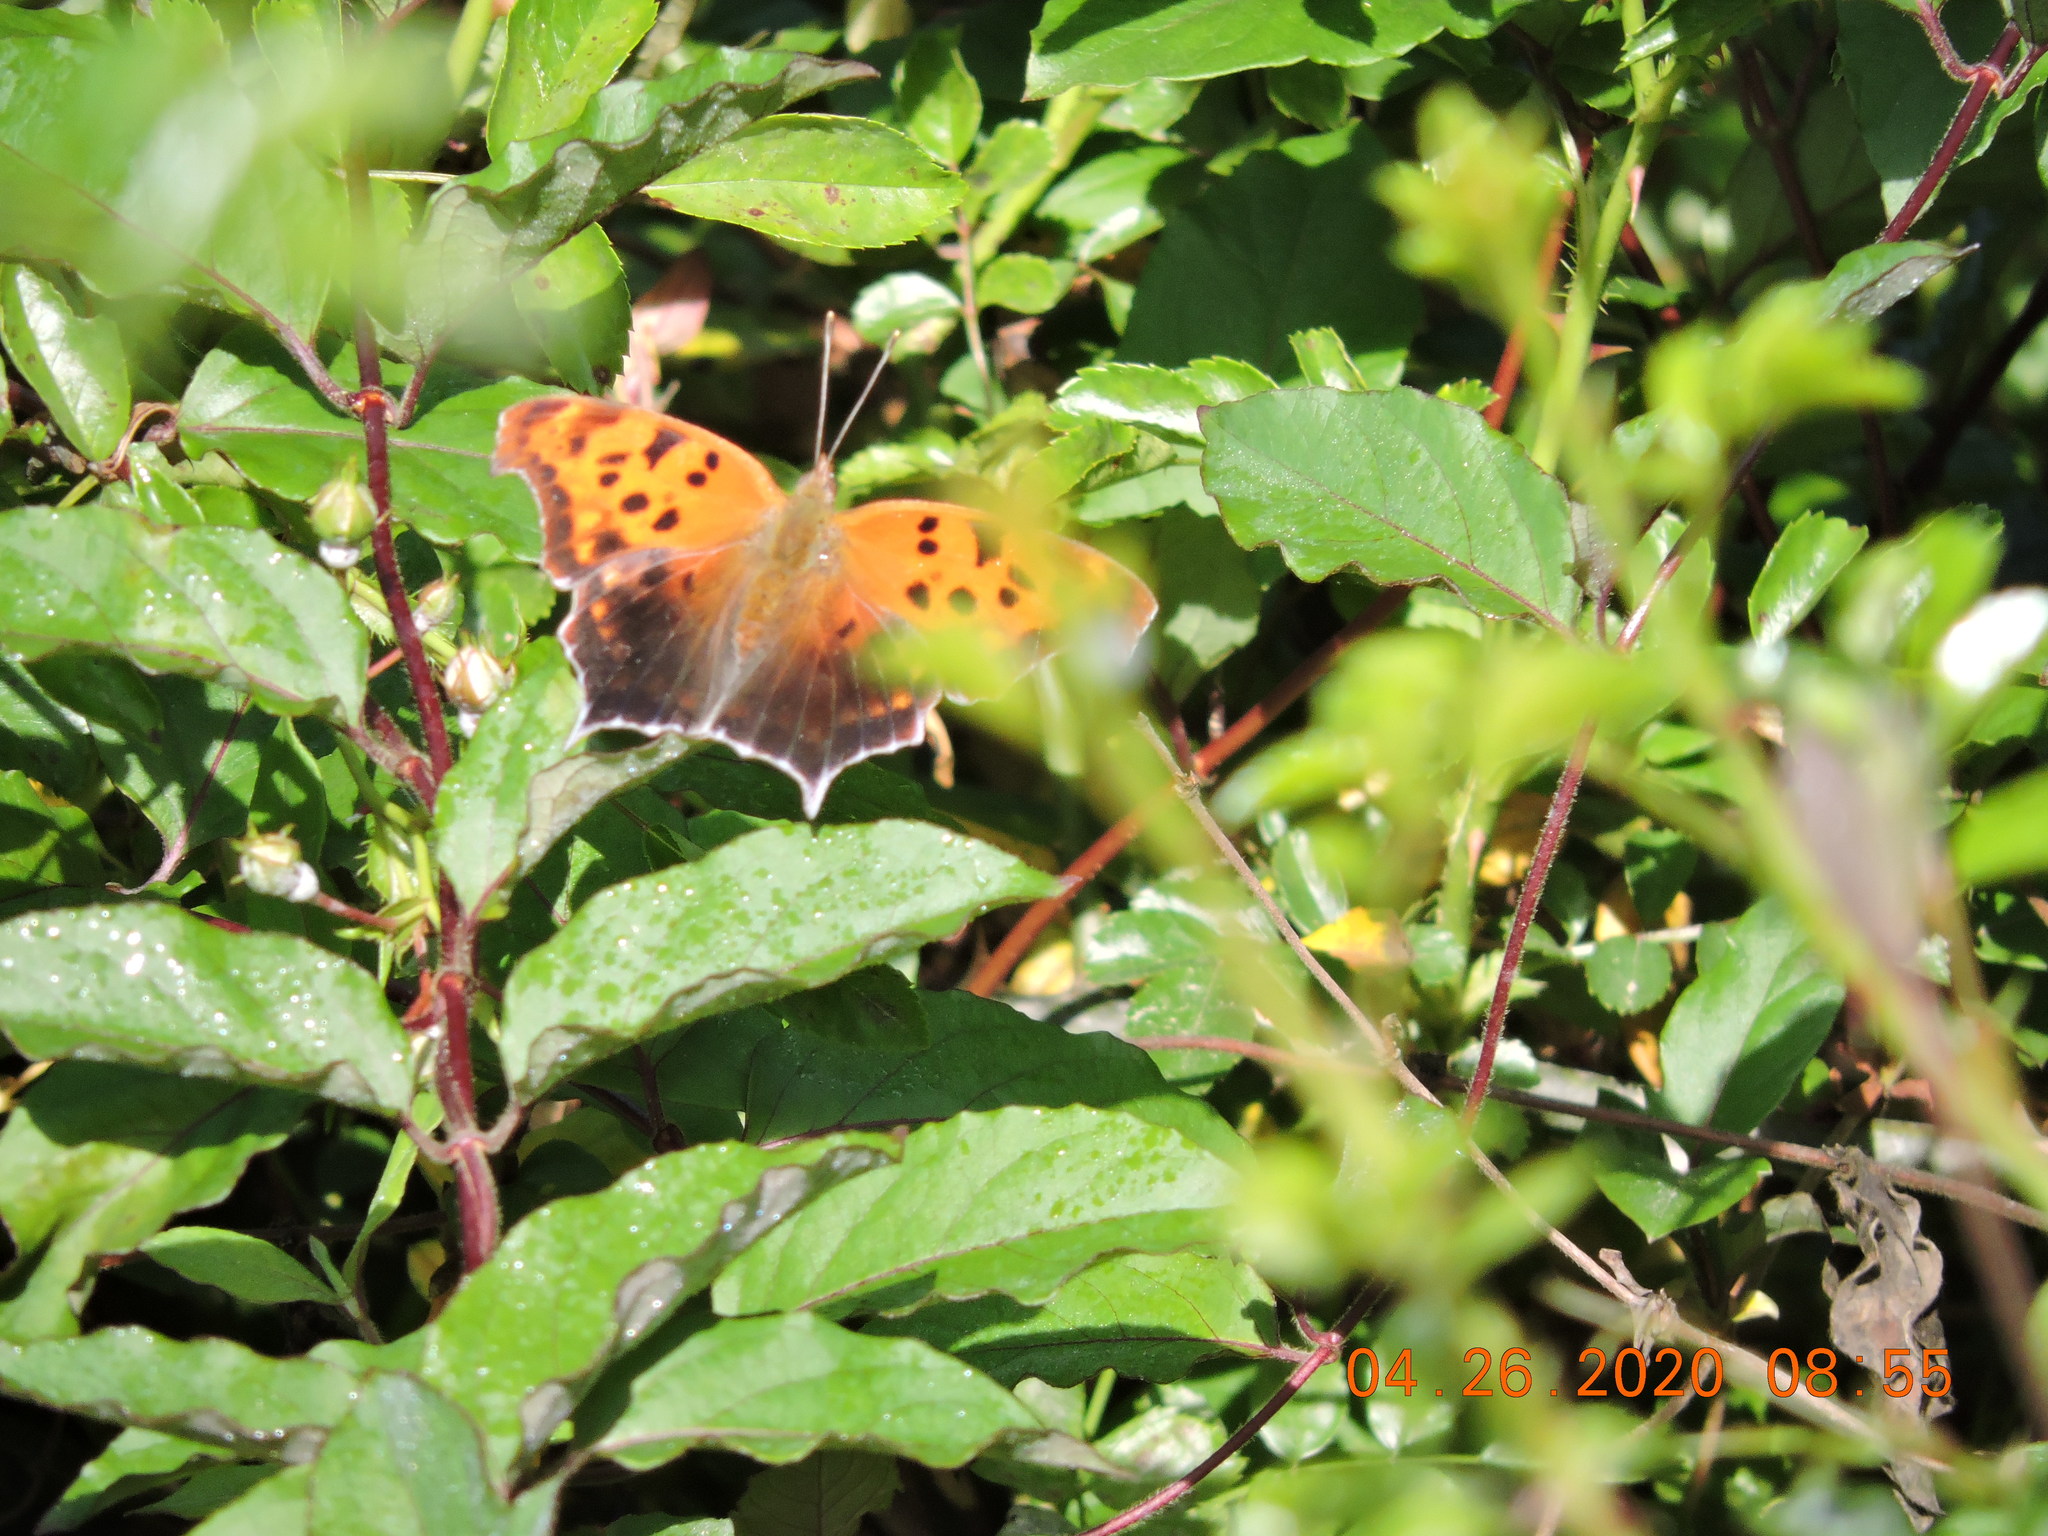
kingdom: Animalia
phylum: Arthropoda
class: Insecta
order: Lepidoptera
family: Nymphalidae
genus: Polygonia
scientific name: Polygonia interrogationis
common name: Question mark
